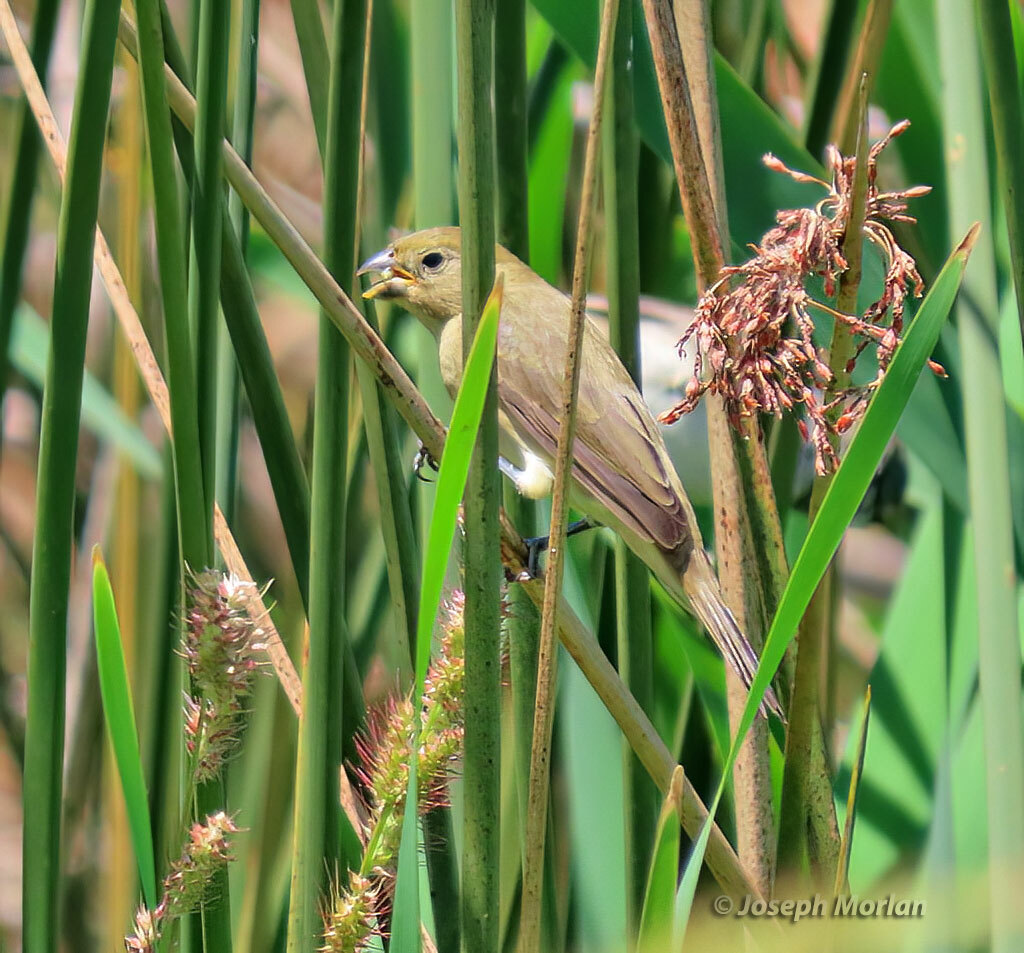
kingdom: Animalia
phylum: Chordata
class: Aves
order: Passeriformes
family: Thraupidae
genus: Sporophila
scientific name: Sporophila caerulescens
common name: Double-collared seedeater
